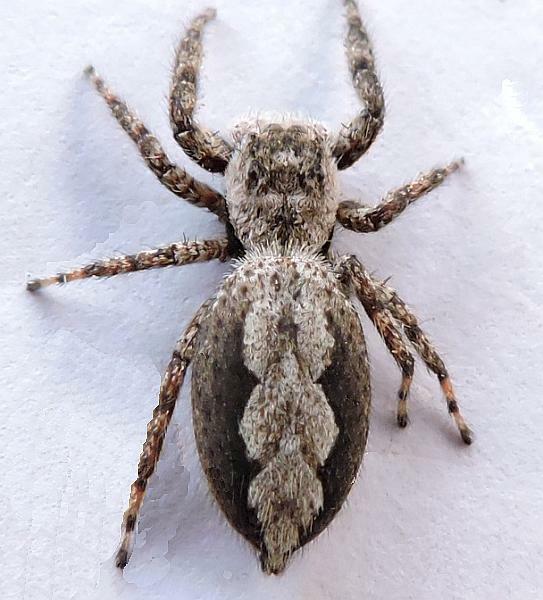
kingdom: Animalia
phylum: Arthropoda
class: Arachnida
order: Araneae
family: Salticidae
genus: Platycryptus
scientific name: Platycryptus undatus
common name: Tan jumping spider
